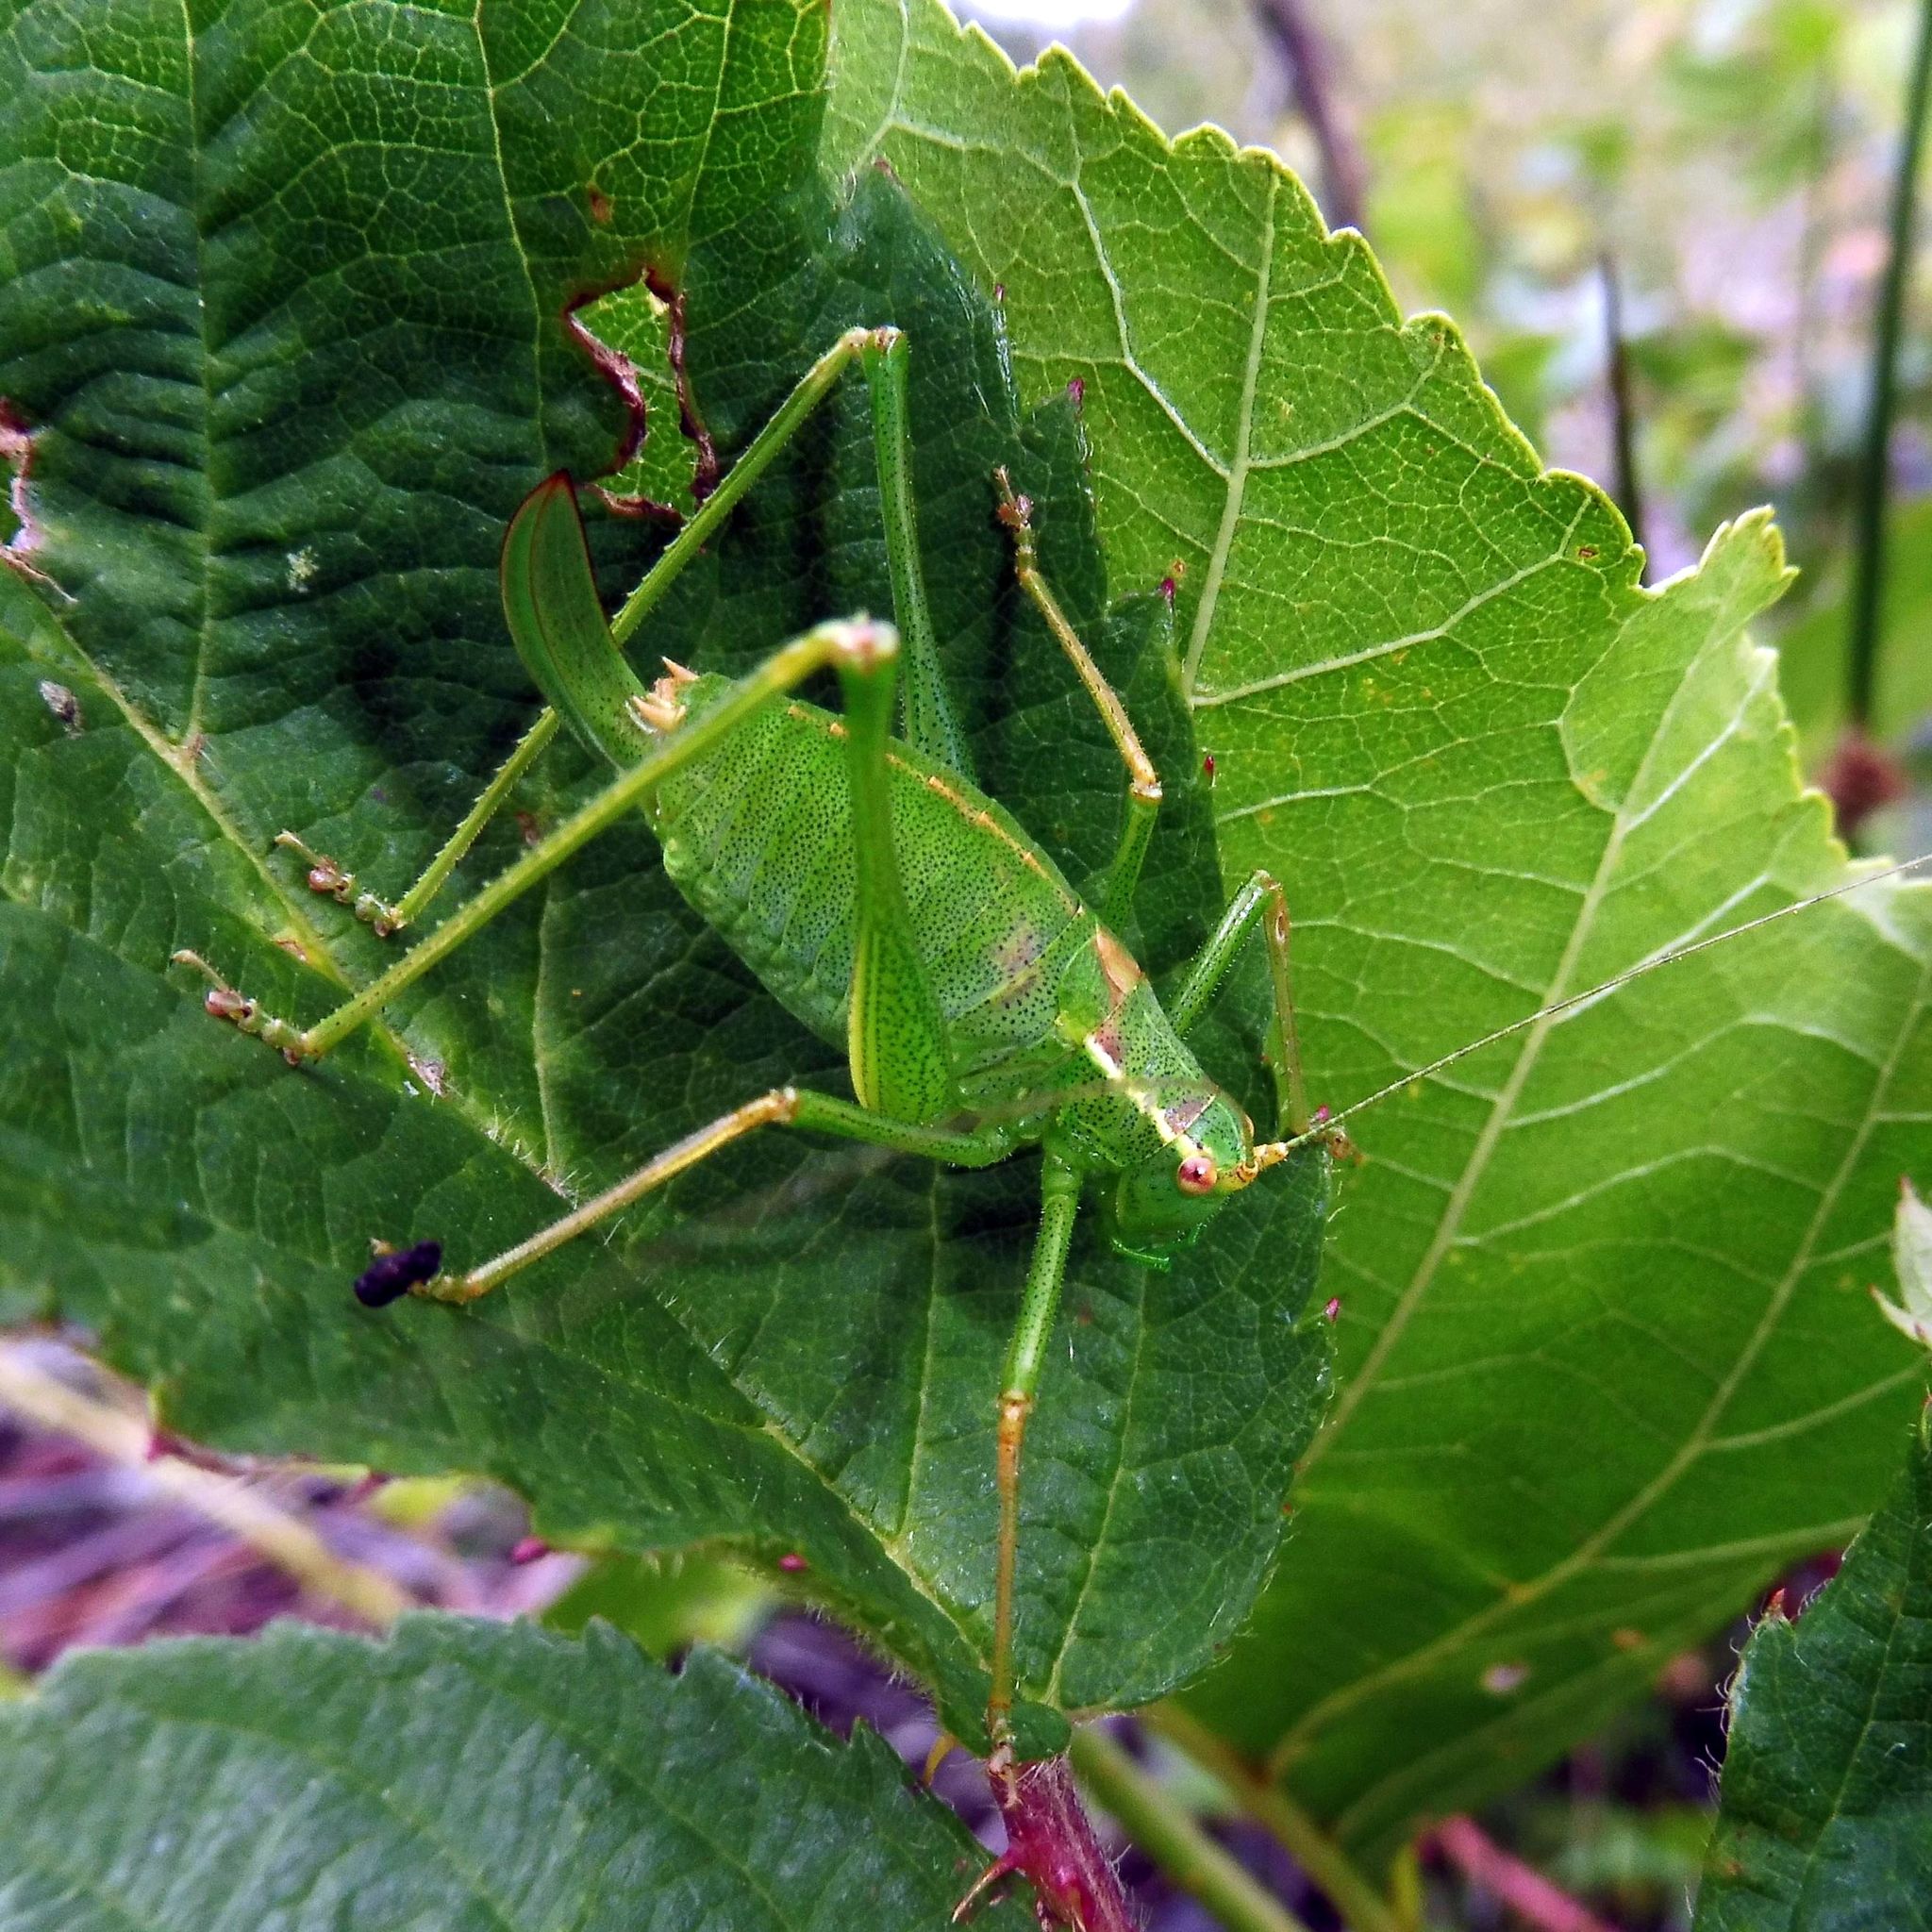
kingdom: Animalia
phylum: Arthropoda
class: Insecta
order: Orthoptera
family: Tettigoniidae
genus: Leptophyes
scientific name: Leptophyes punctatissima
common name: Speckled bush-cricket
